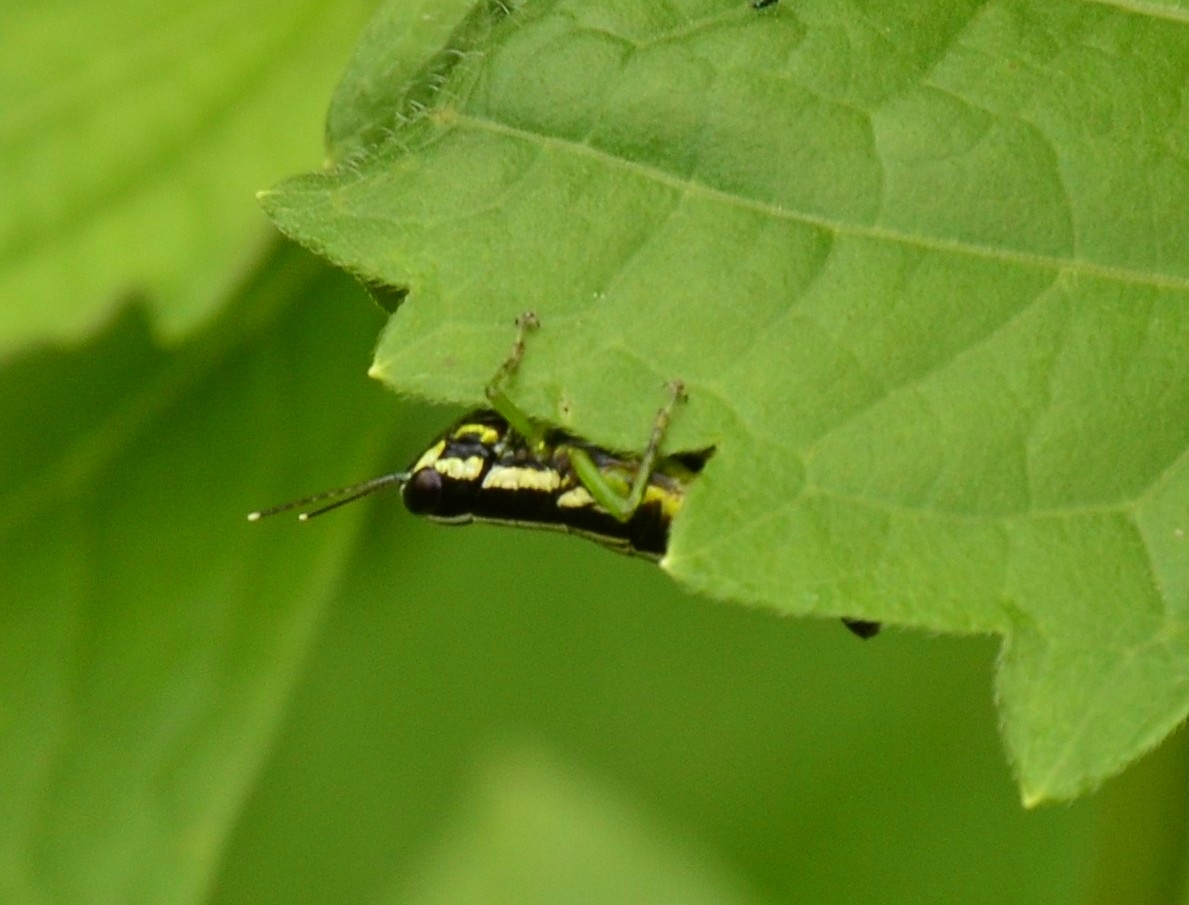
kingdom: Animalia
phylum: Arthropoda
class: Insecta
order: Orthoptera
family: Acrididae
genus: Chitaura
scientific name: Chitaura indica
